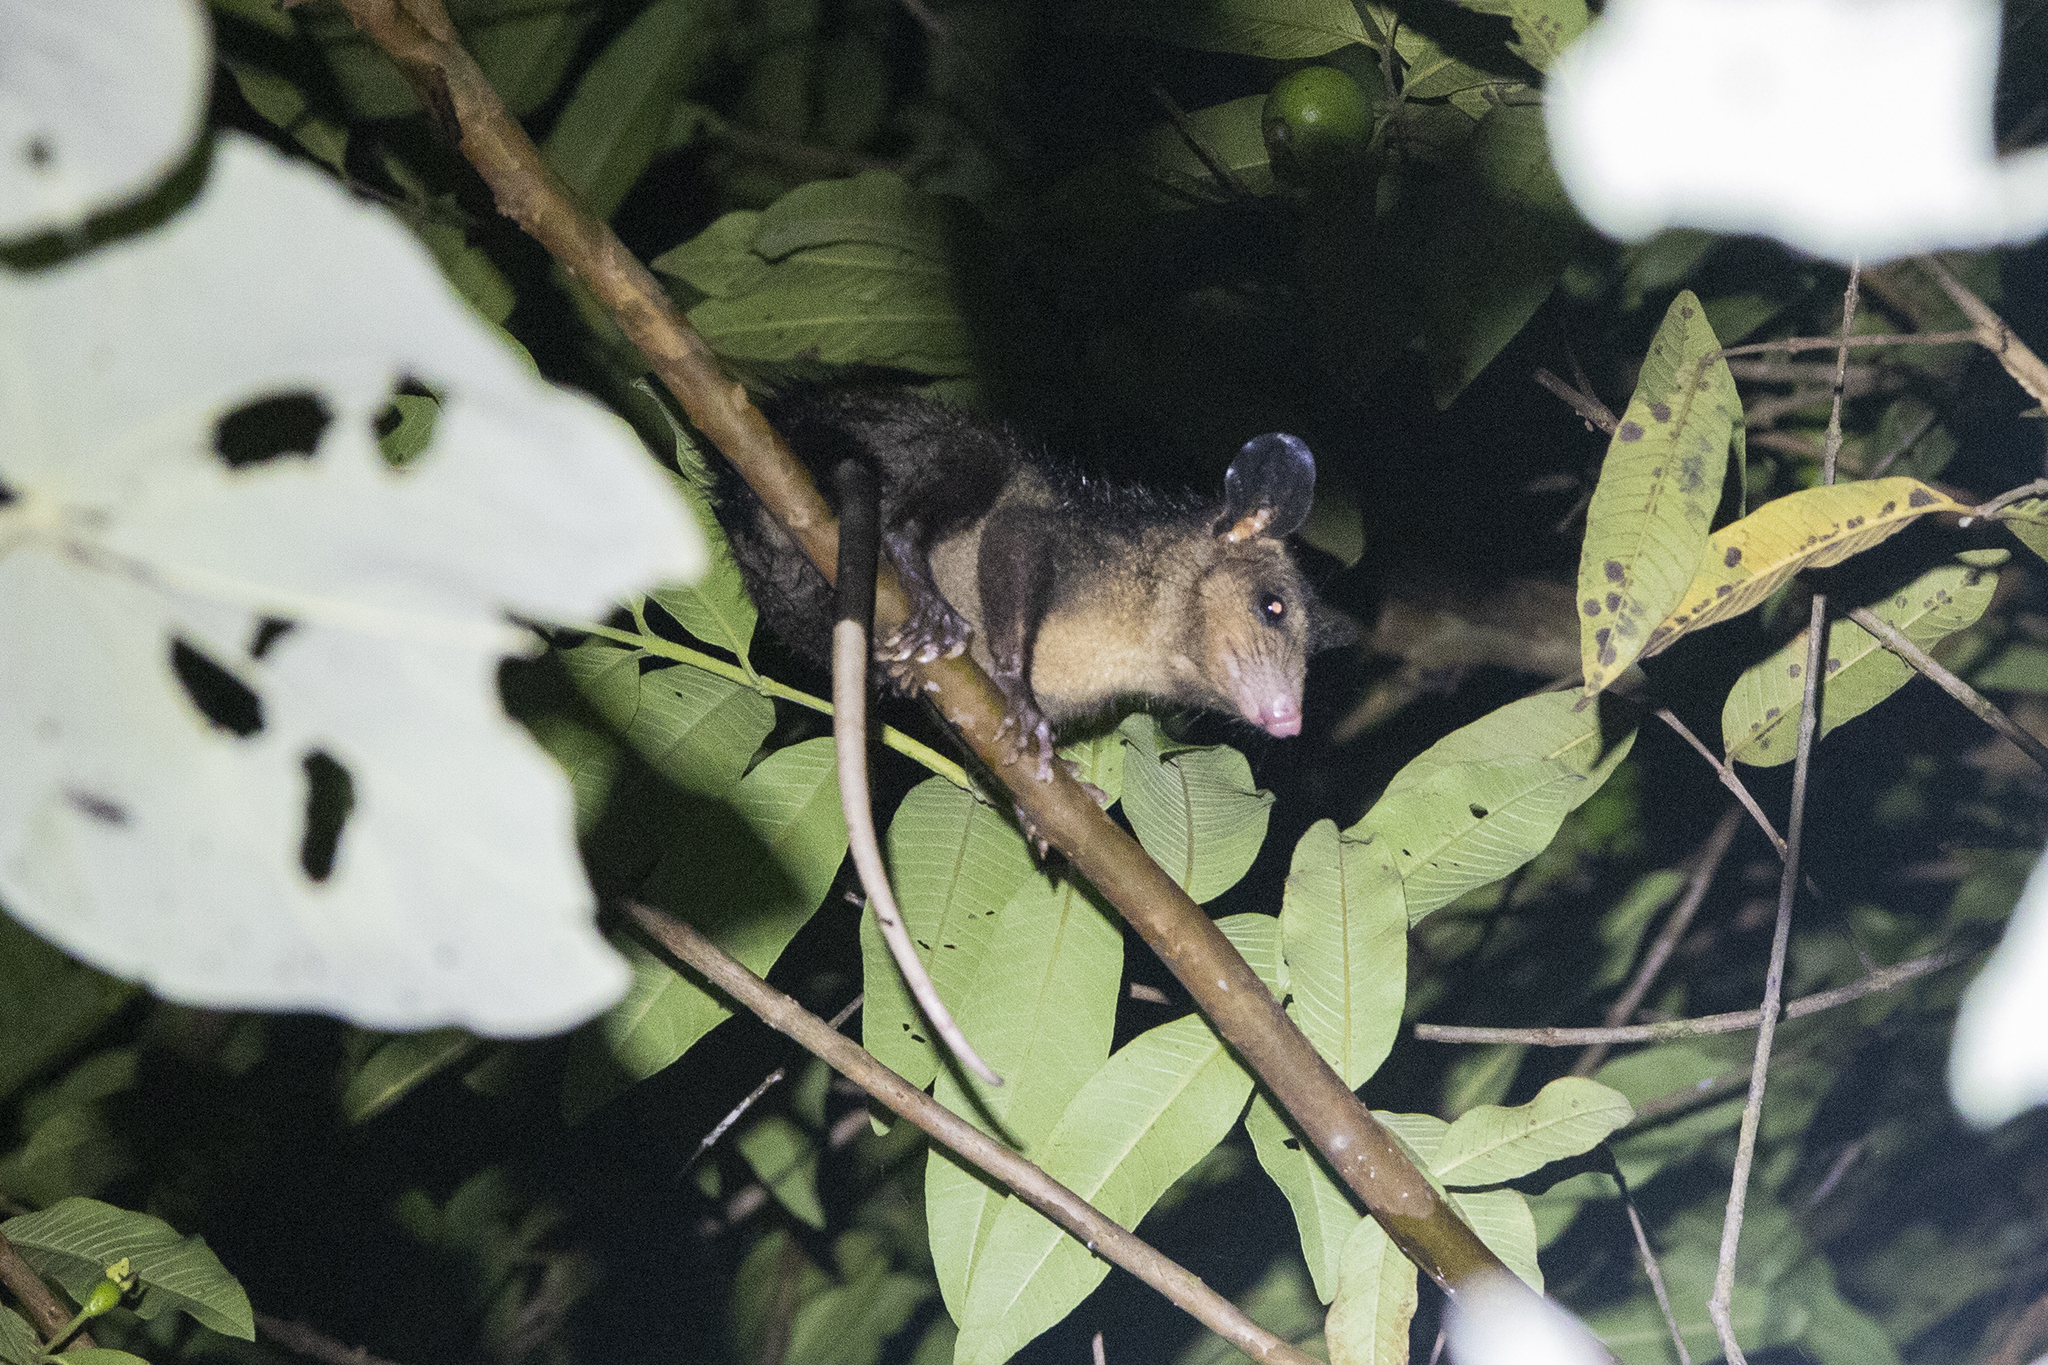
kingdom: Animalia
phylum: Chordata
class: Mammalia
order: Didelphimorphia
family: Didelphidae
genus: Didelphis
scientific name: Didelphis marsupialis
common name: Common opossum
